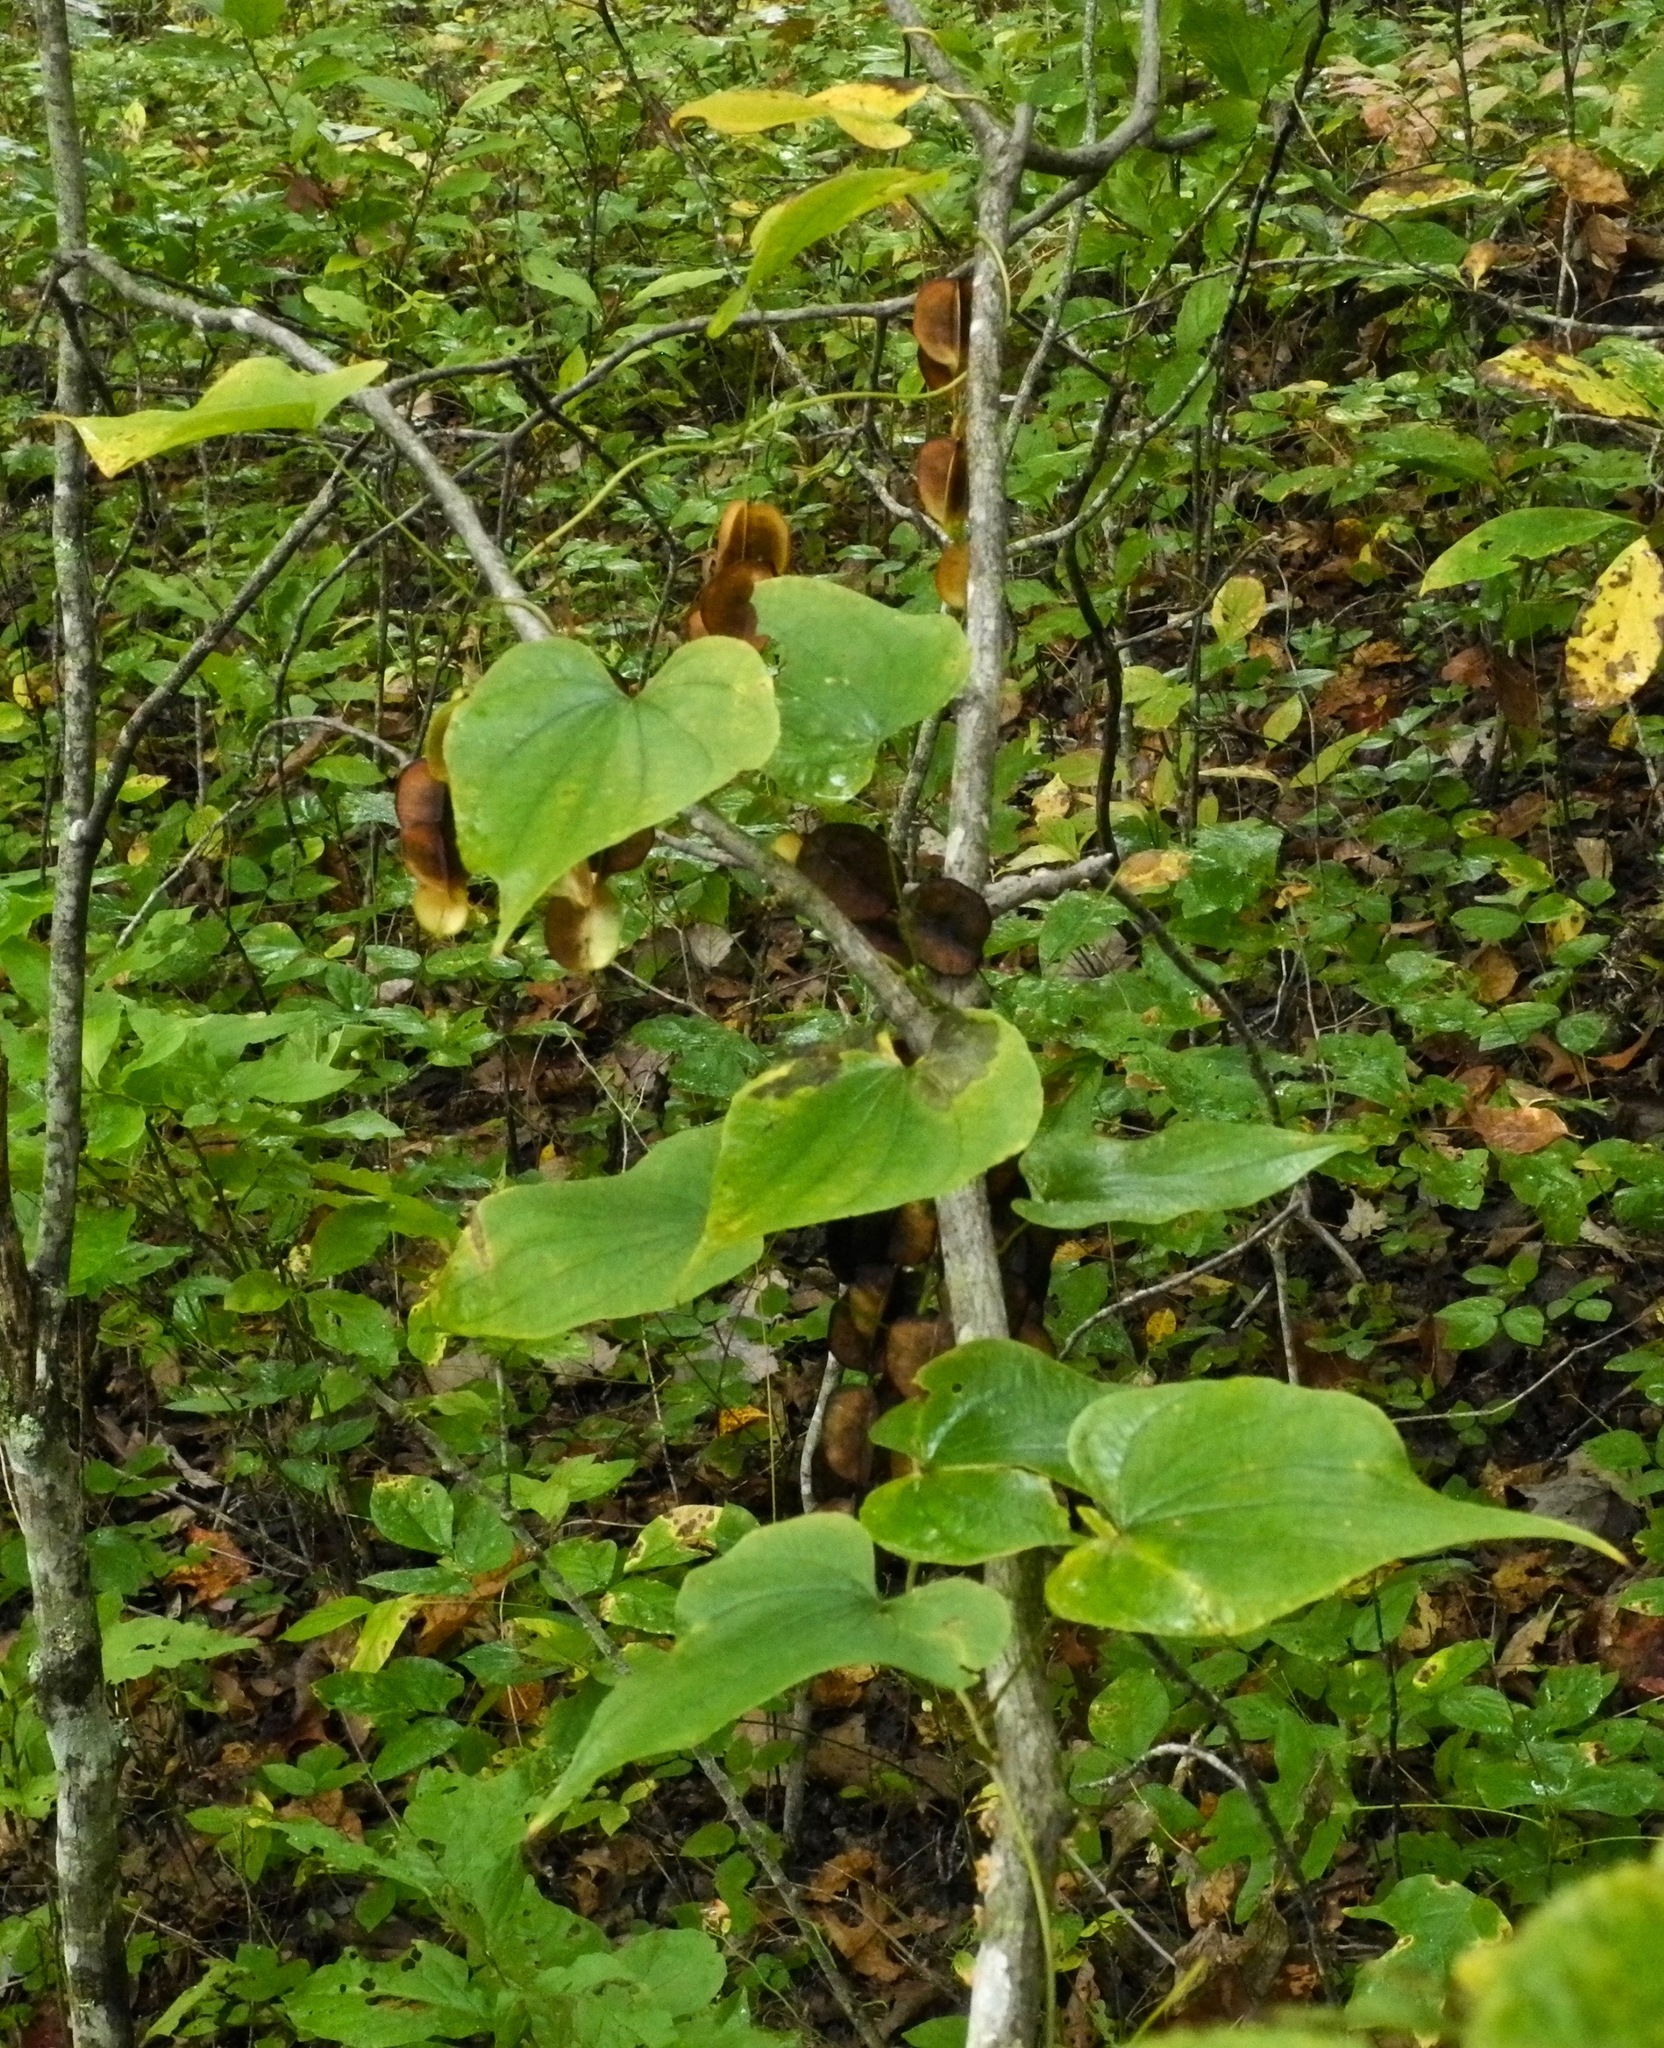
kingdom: Plantae
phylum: Tracheophyta
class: Liliopsida
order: Dioscoreales
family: Dioscoreaceae
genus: Dioscorea
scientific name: Dioscorea villosa
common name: Wild yam
